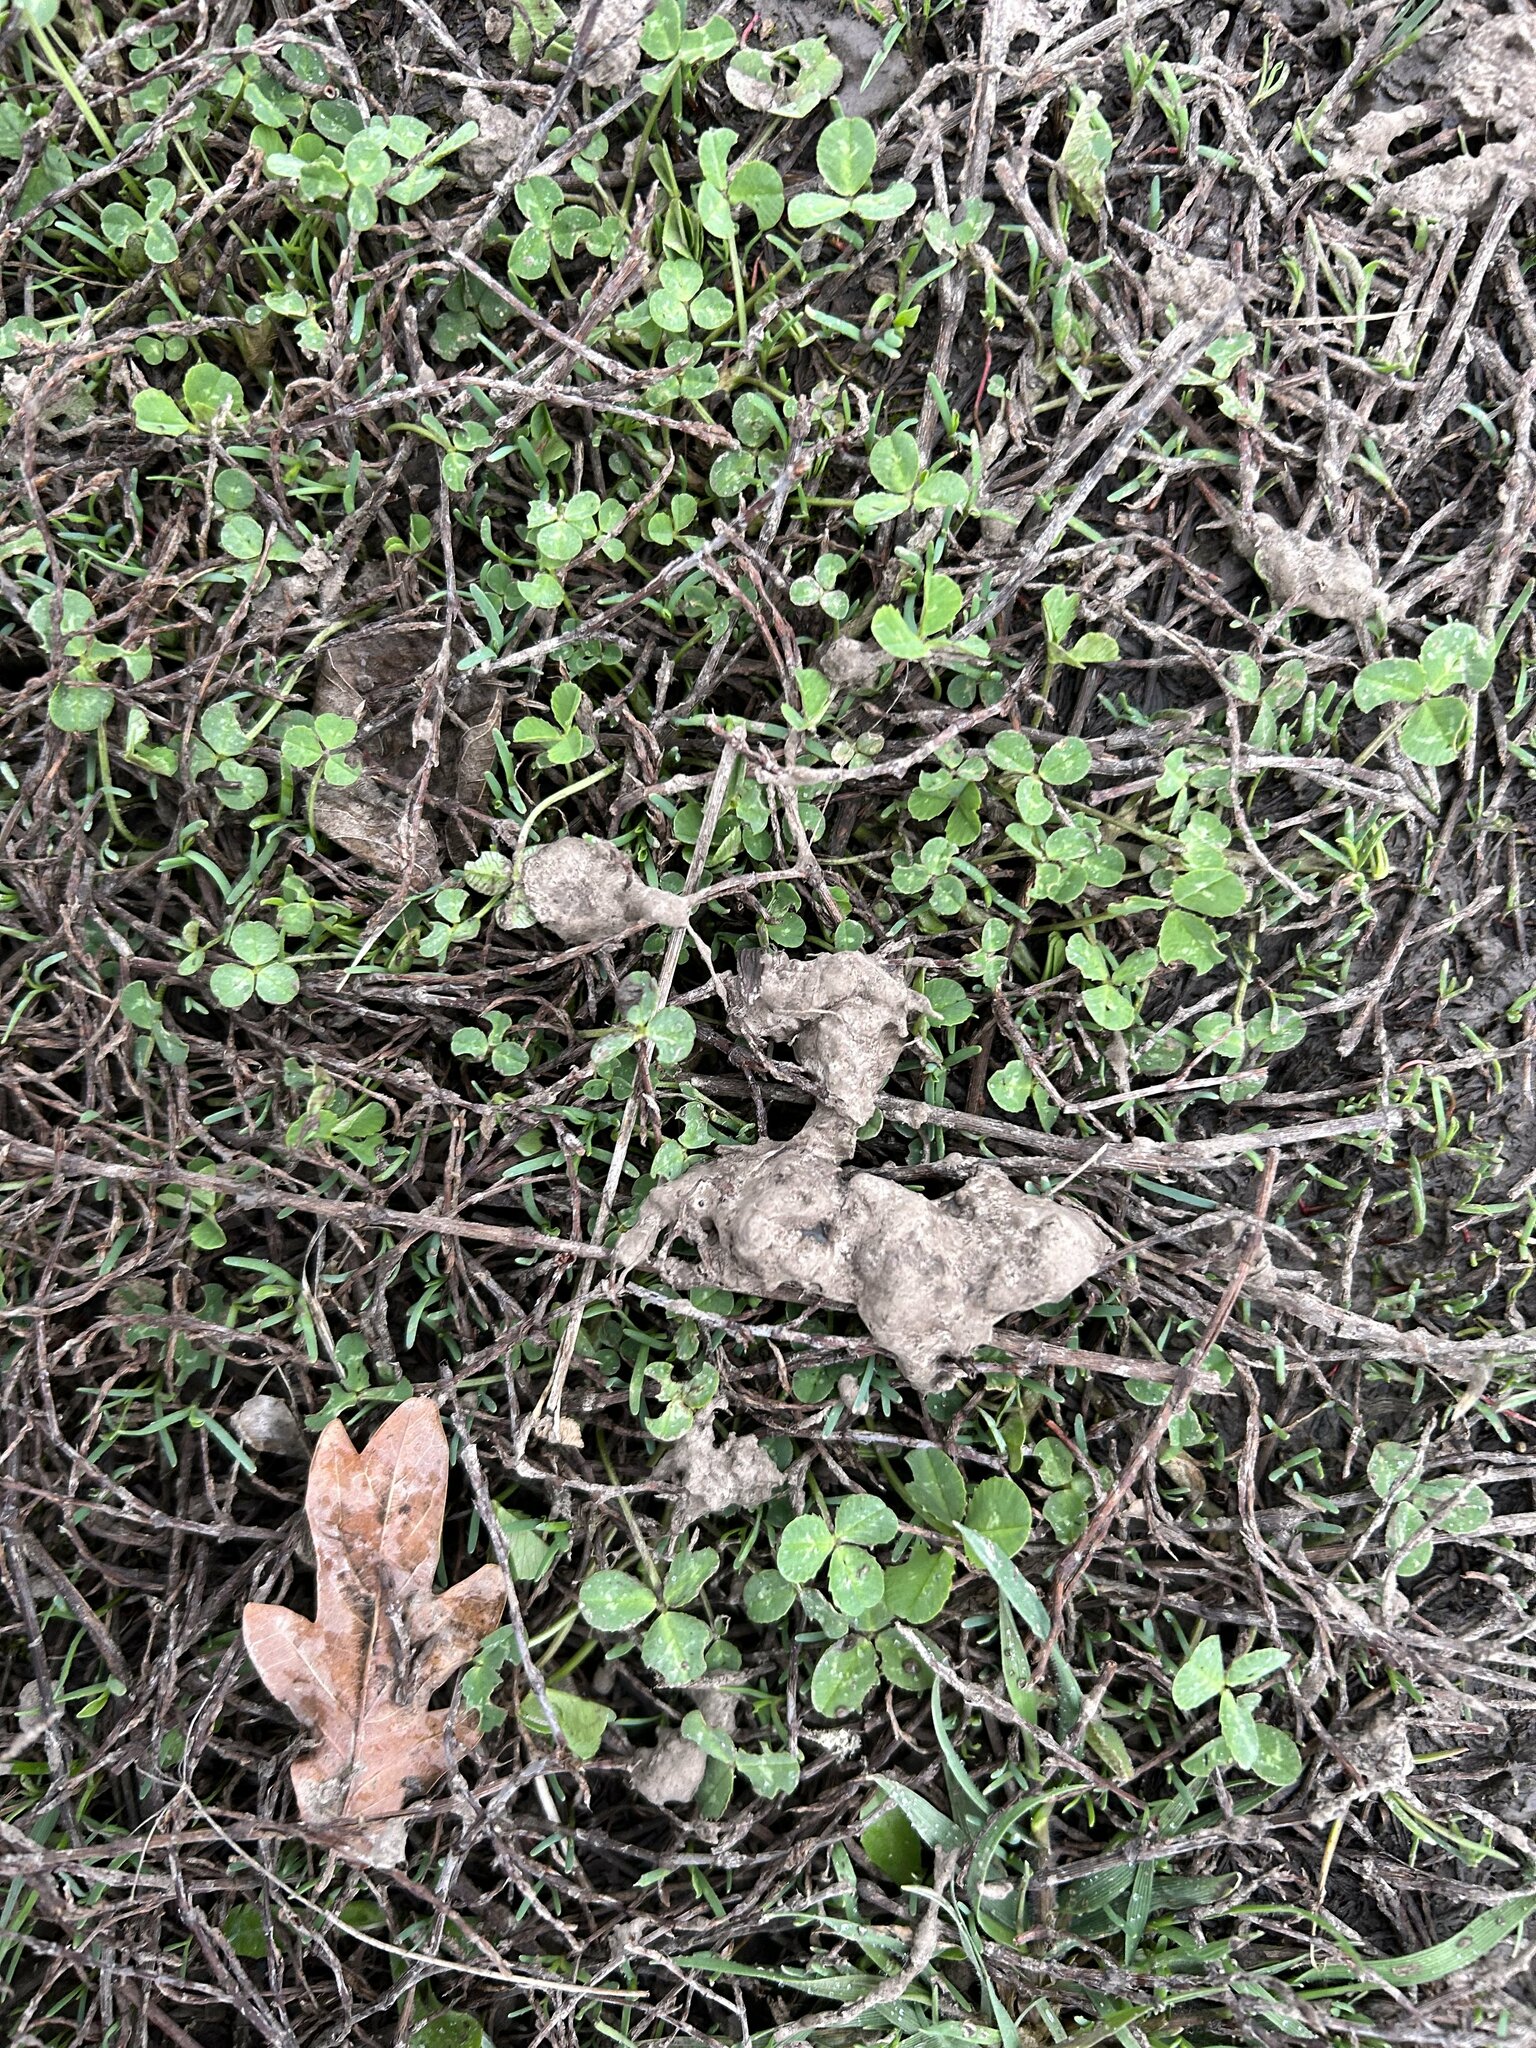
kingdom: Plantae
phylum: Tracheophyta
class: Magnoliopsida
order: Fabales
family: Fabaceae
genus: Trifolium
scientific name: Trifolium repens
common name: White clover
